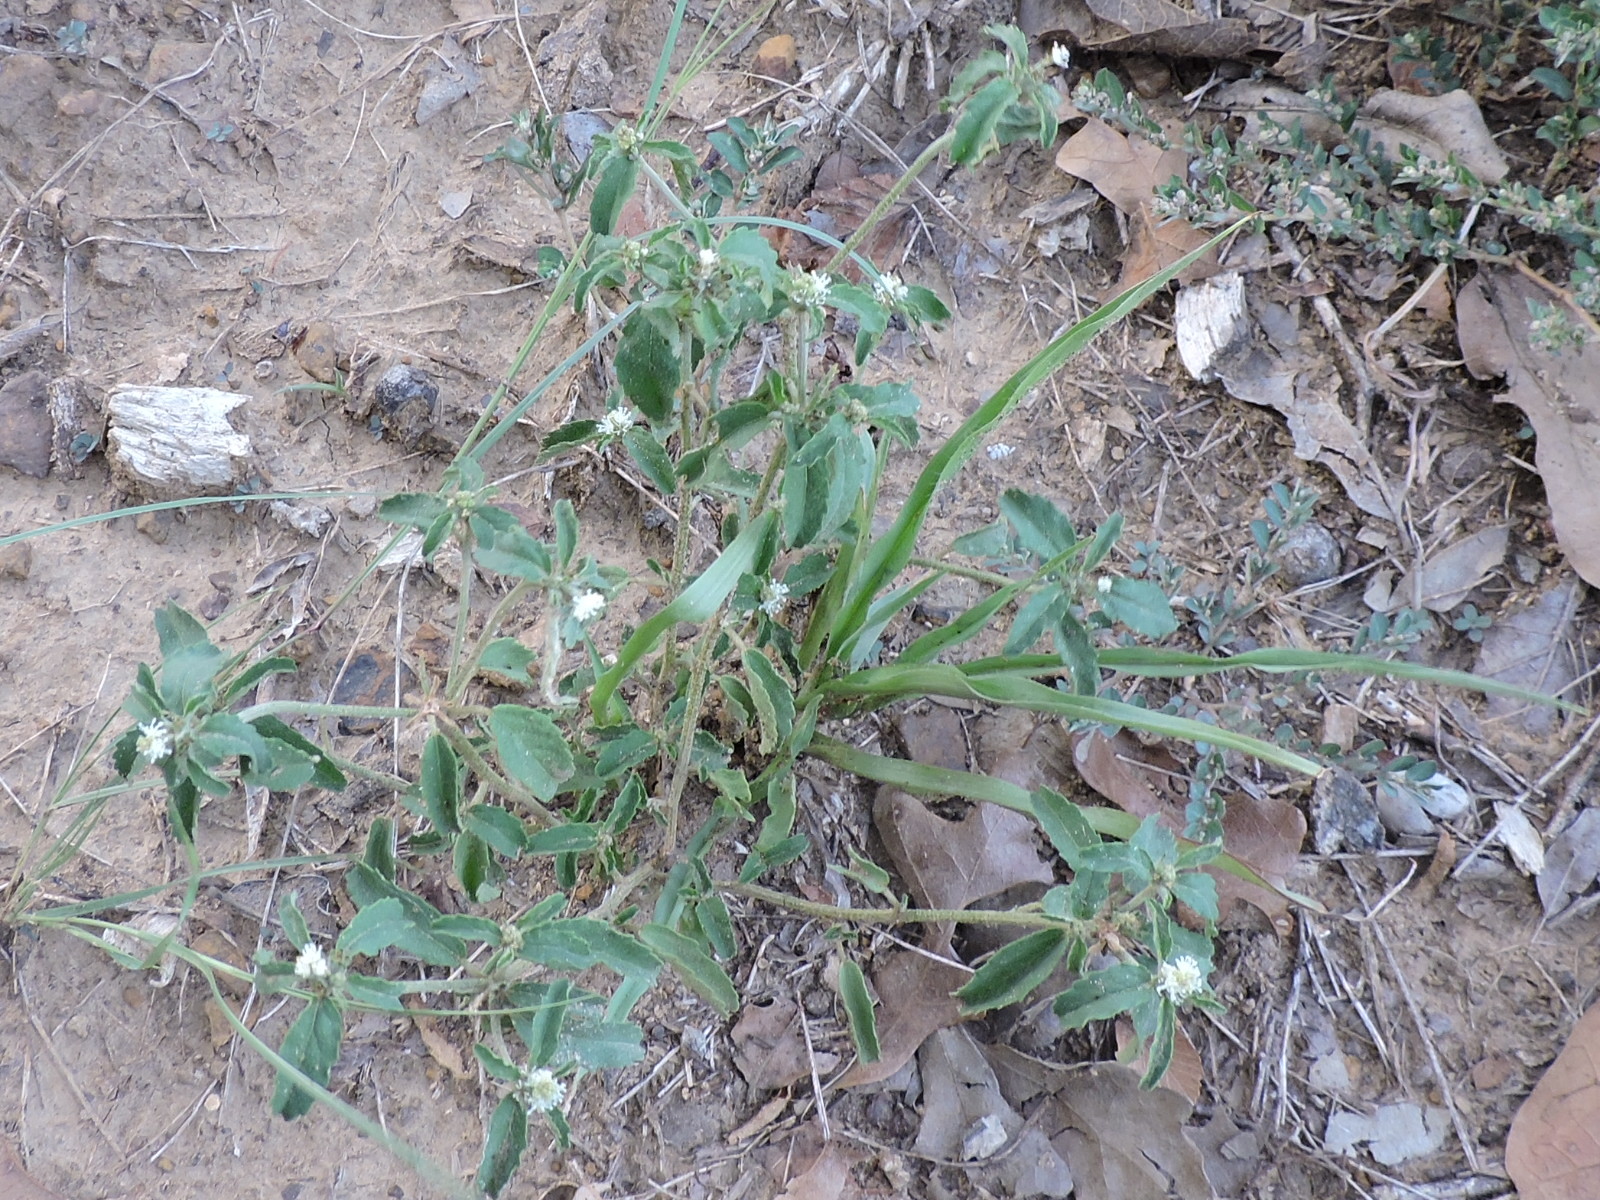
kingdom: Plantae
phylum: Tracheophyta
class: Magnoliopsida
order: Malpighiales
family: Euphorbiaceae
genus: Croton
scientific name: Croton glandulosus
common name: Tropic croton
